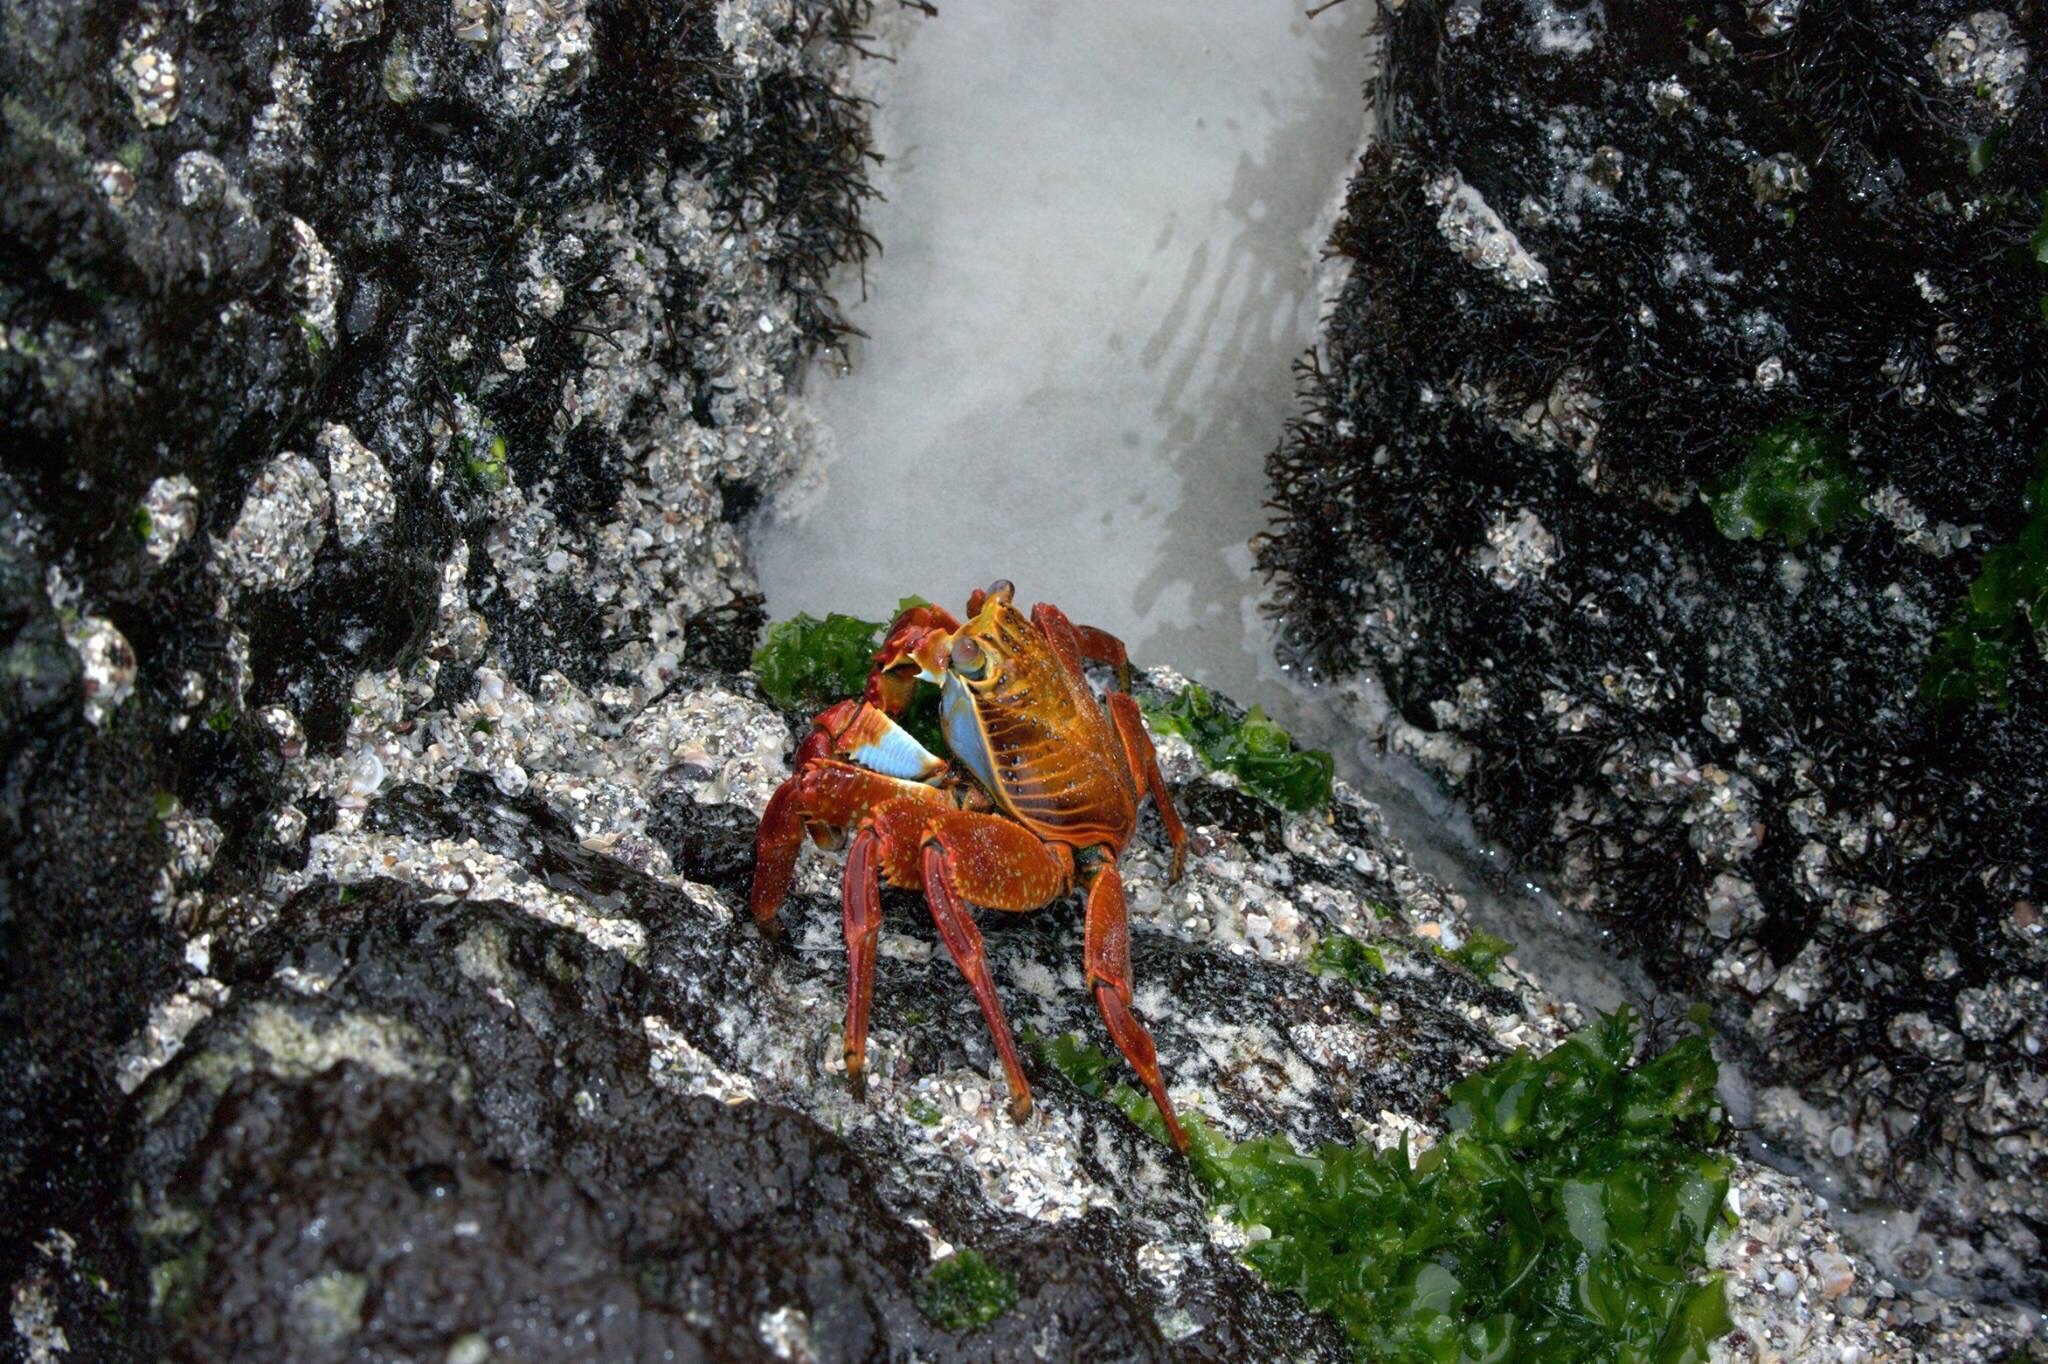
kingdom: Animalia
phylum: Arthropoda
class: Malacostraca
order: Decapoda
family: Grapsidae
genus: Grapsus
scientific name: Grapsus grapsus
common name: Sally lightfoot
